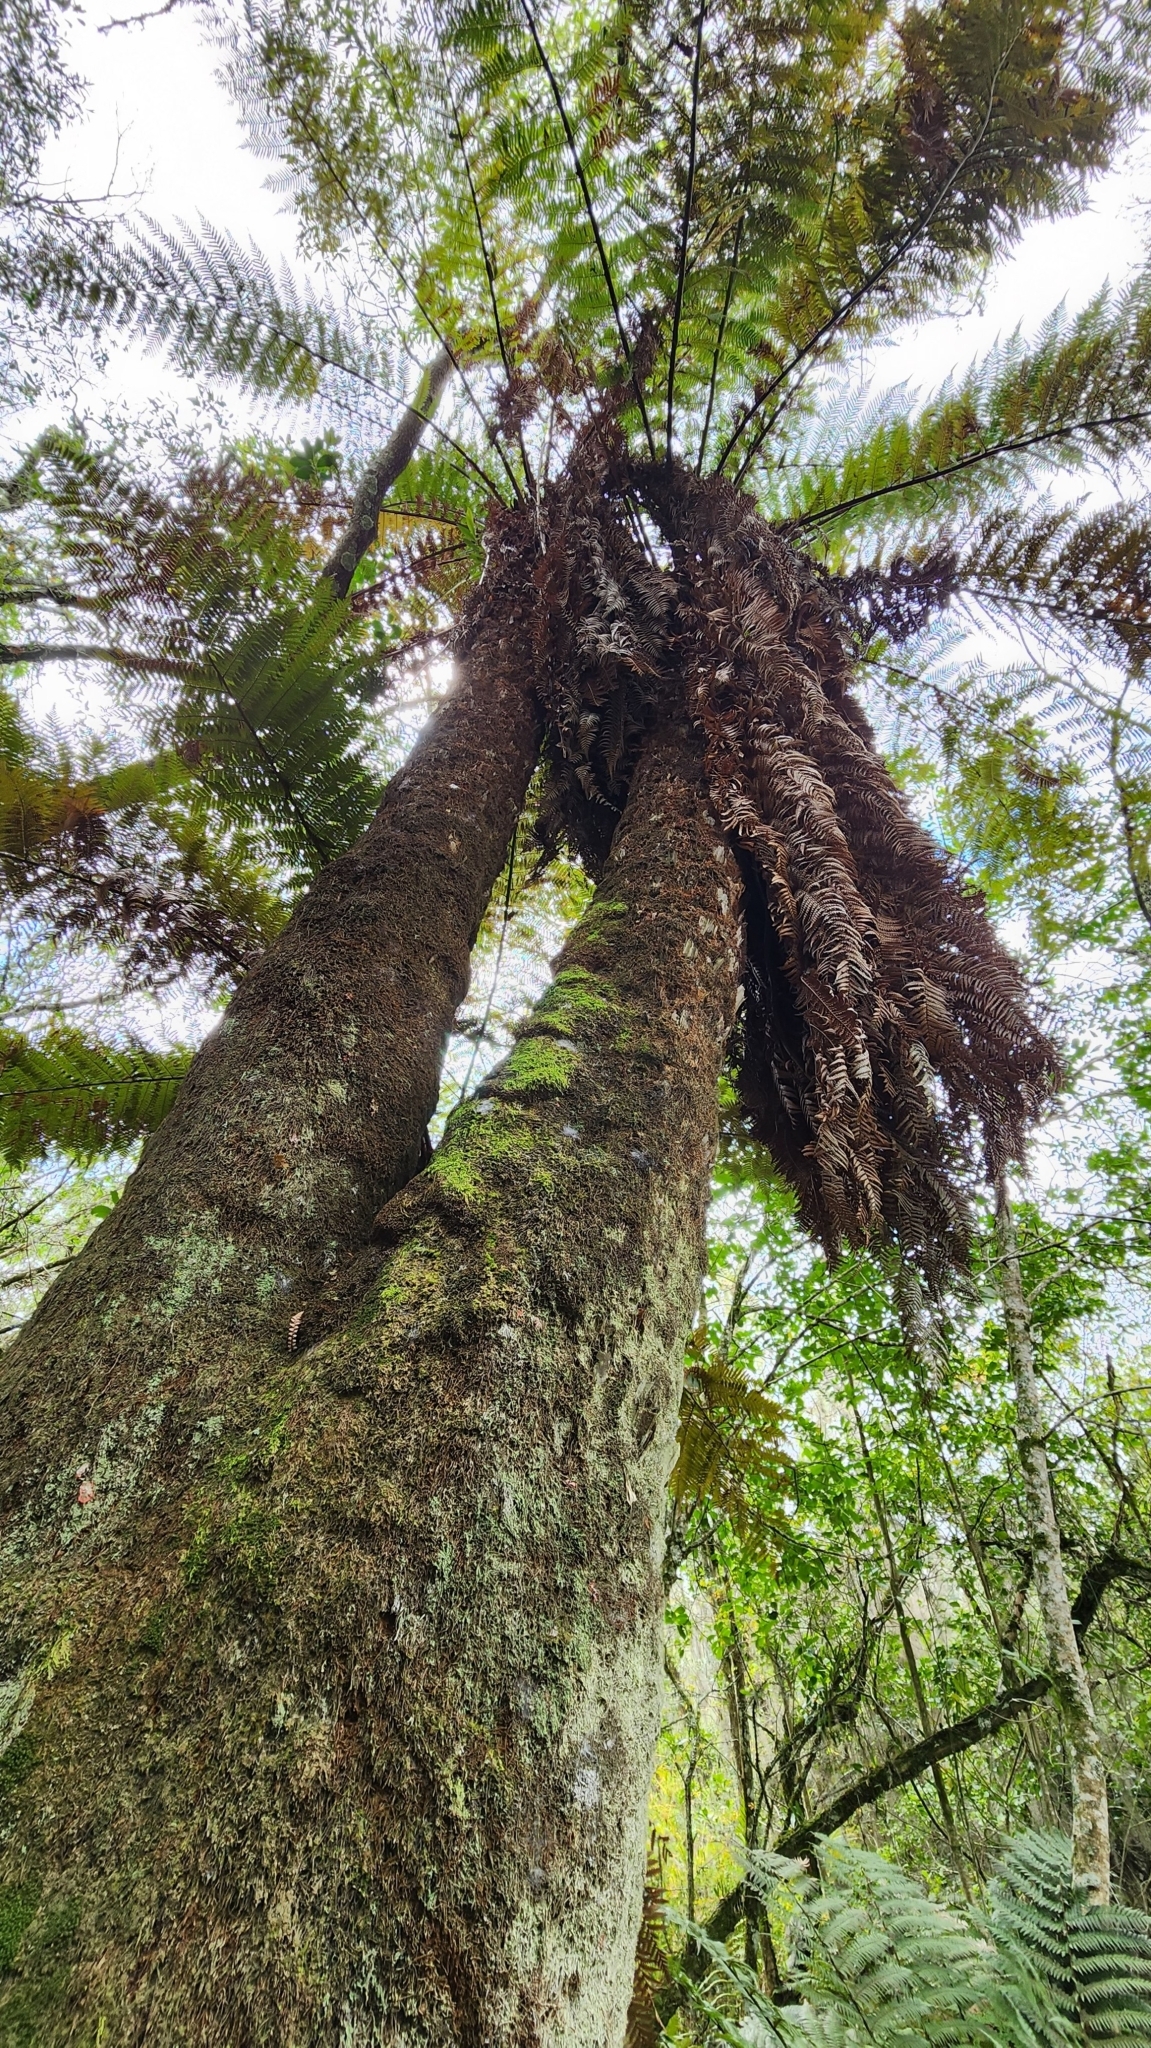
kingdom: Plantae
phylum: Tracheophyta
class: Polypodiopsida
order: Cyatheales
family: Dicksoniaceae
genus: Dicksonia
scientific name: Dicksonia sellowiana
